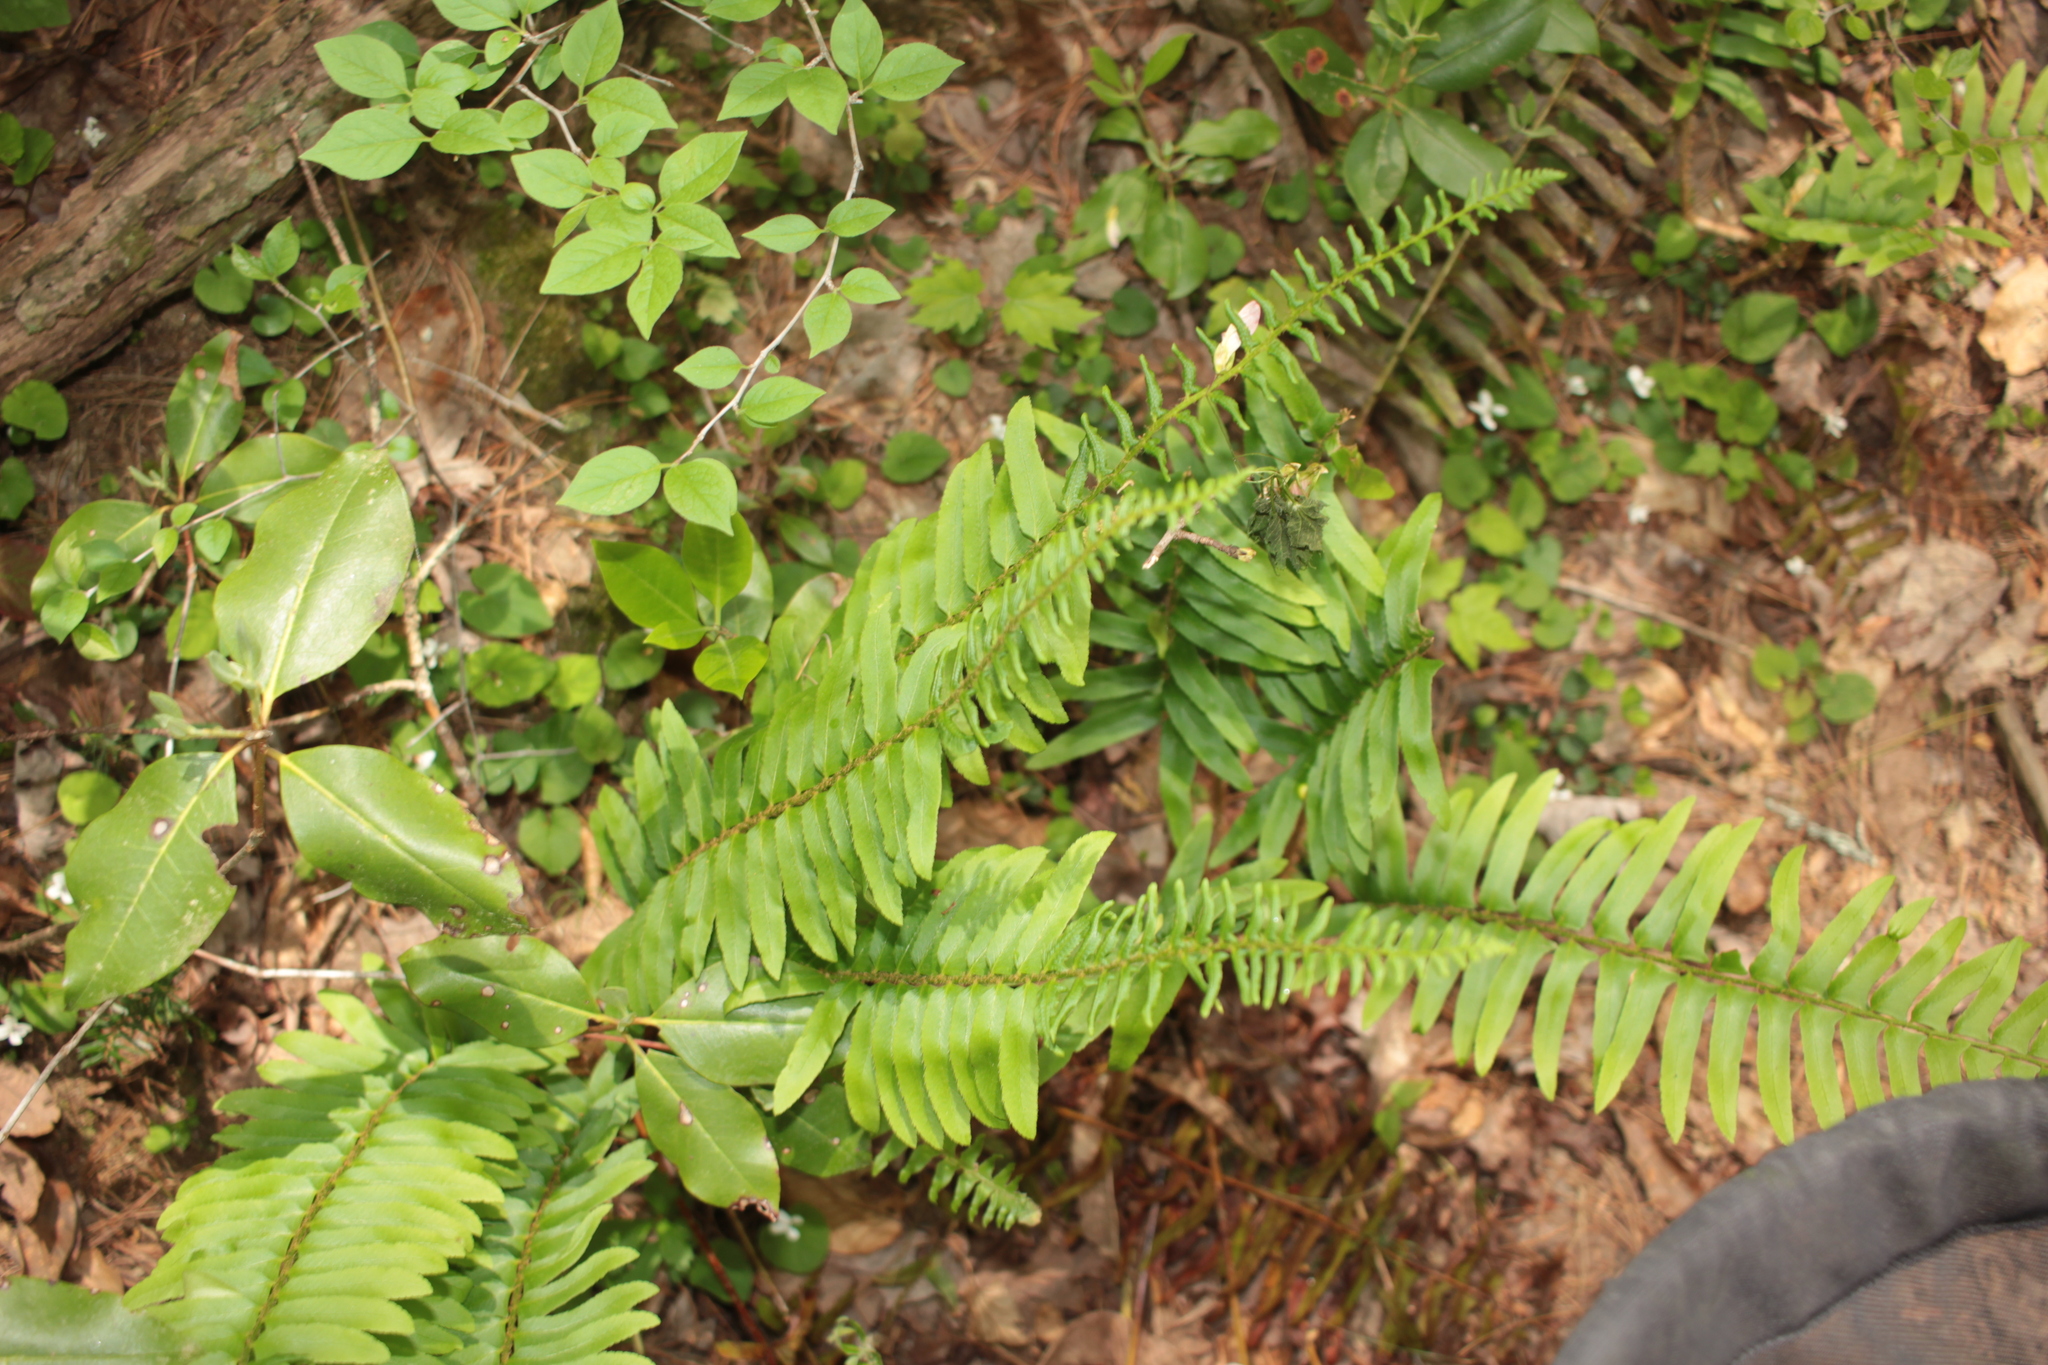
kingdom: Plantae
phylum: Tracheophyta
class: Polypodiopsida
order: Polypodiales
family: Dryopteridaceae
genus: Polystichum
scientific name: Polystichum acrostichoides
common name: Christmas fern
